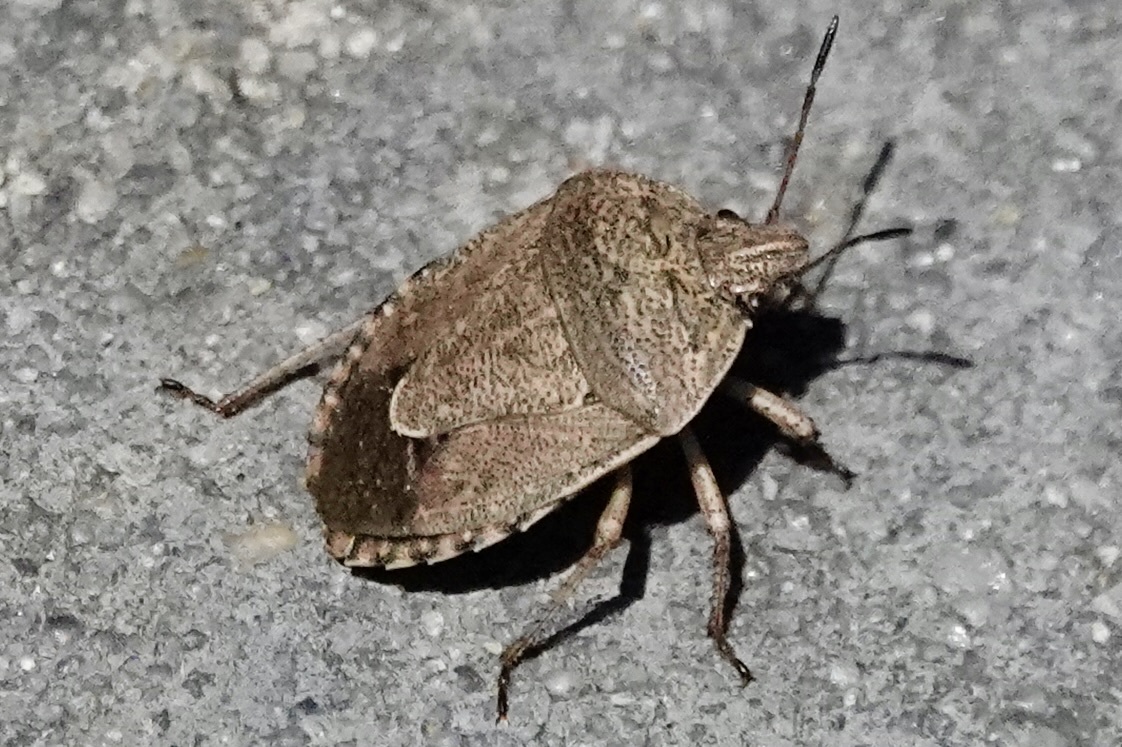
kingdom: Animalia
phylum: Arthropoda
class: Insecta
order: Hemiptera
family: Pentatomidae
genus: Hymenarcys
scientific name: Hymenarcys nervosa
